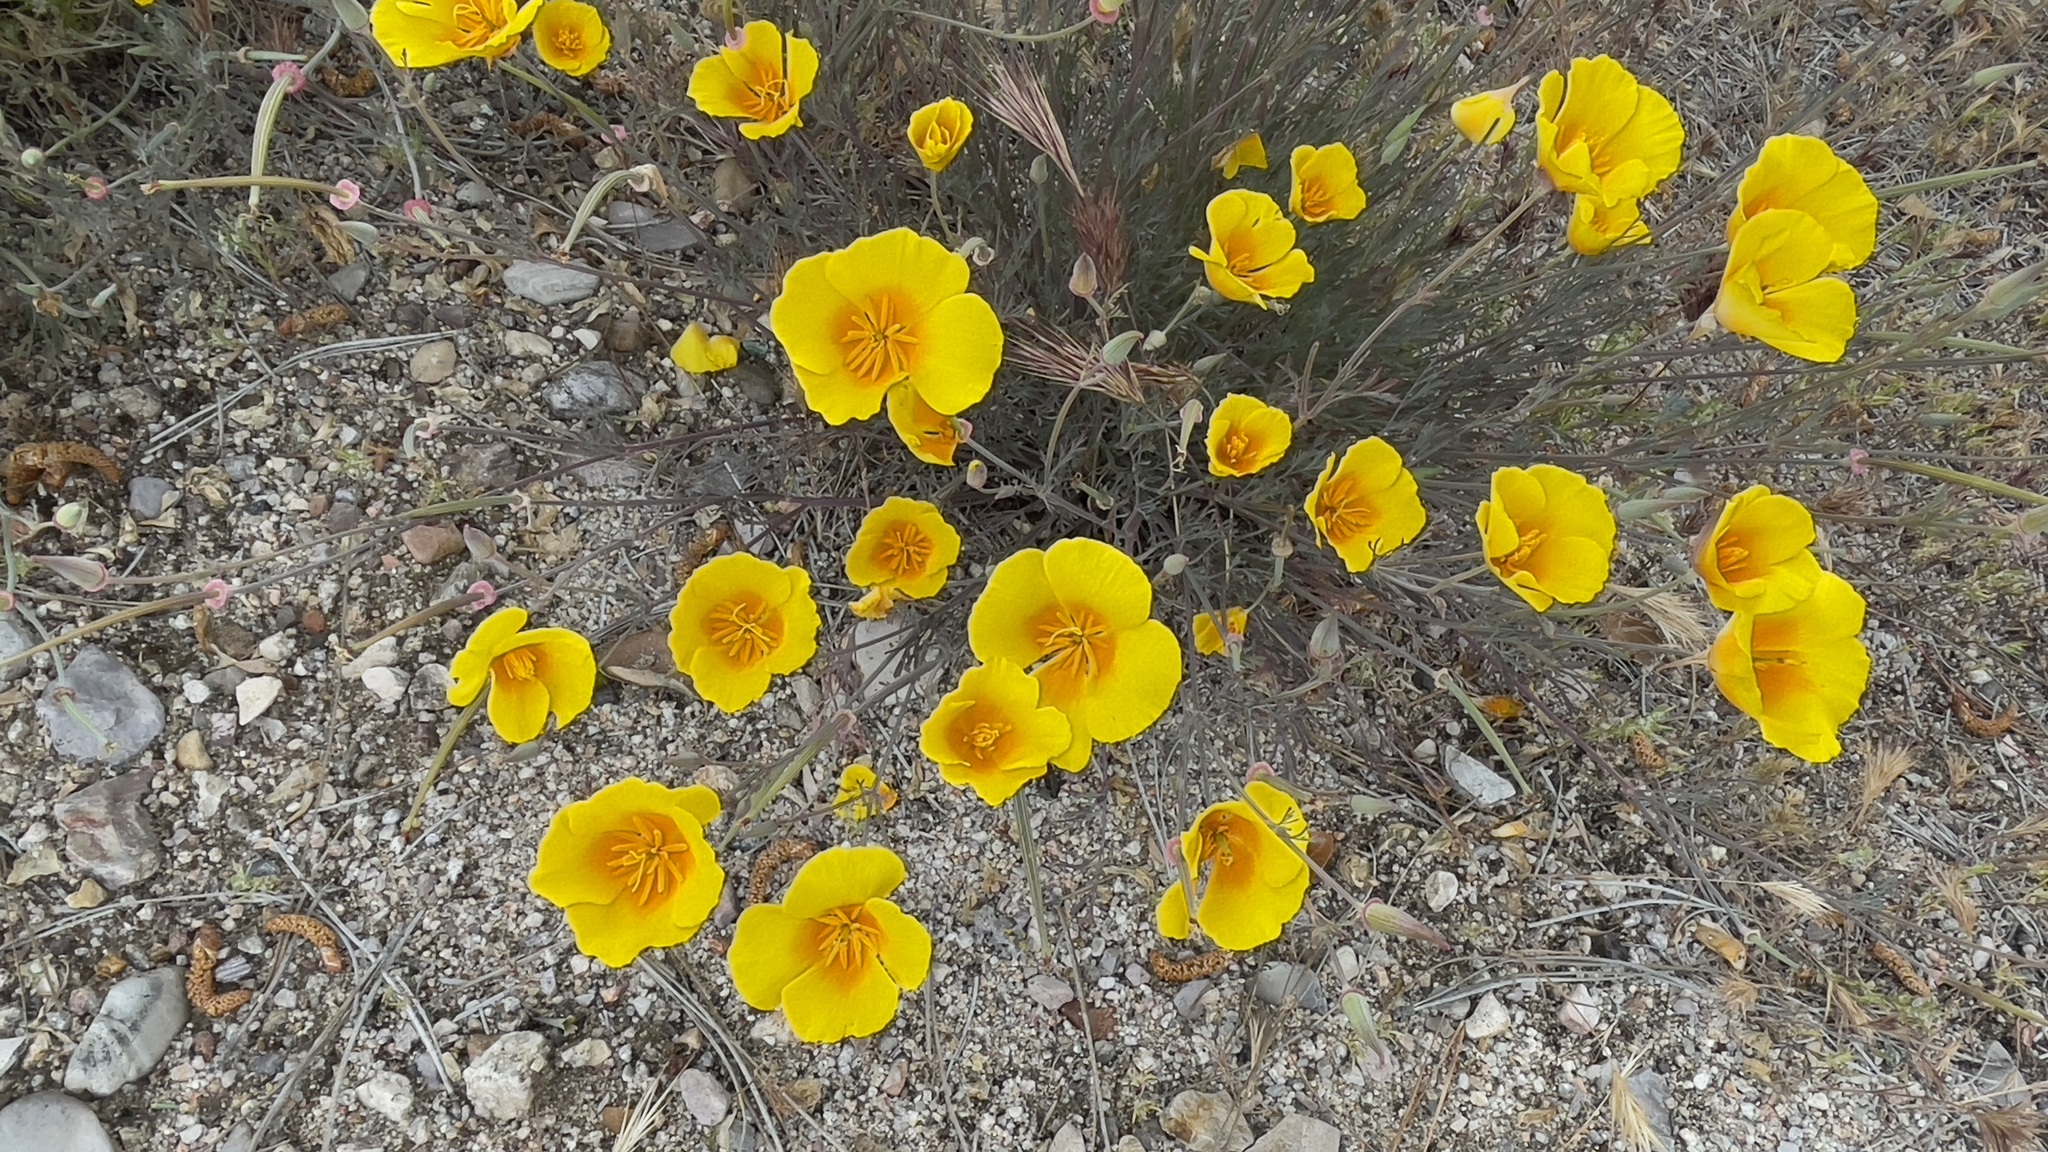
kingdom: Plantae
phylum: Tracheophyta
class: Magnoliopsida
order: Ranunculales
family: Papaveraceae
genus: Eschscholzia
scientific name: Eschscholzia californica
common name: California poppy
